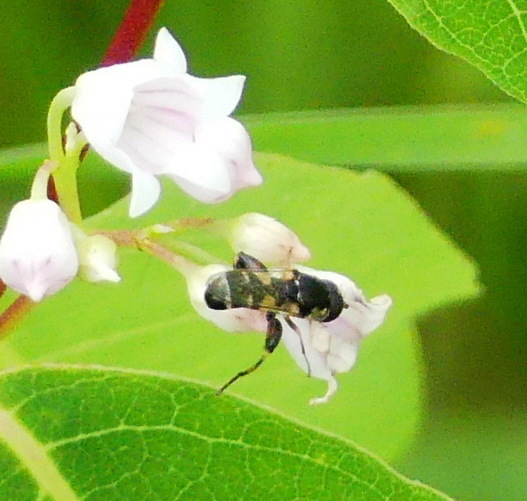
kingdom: Animalia
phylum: Arthropoda
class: Insecta
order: Diptera
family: Syrphidae
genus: Syritta
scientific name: Syritta pipiens
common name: Hover fly
